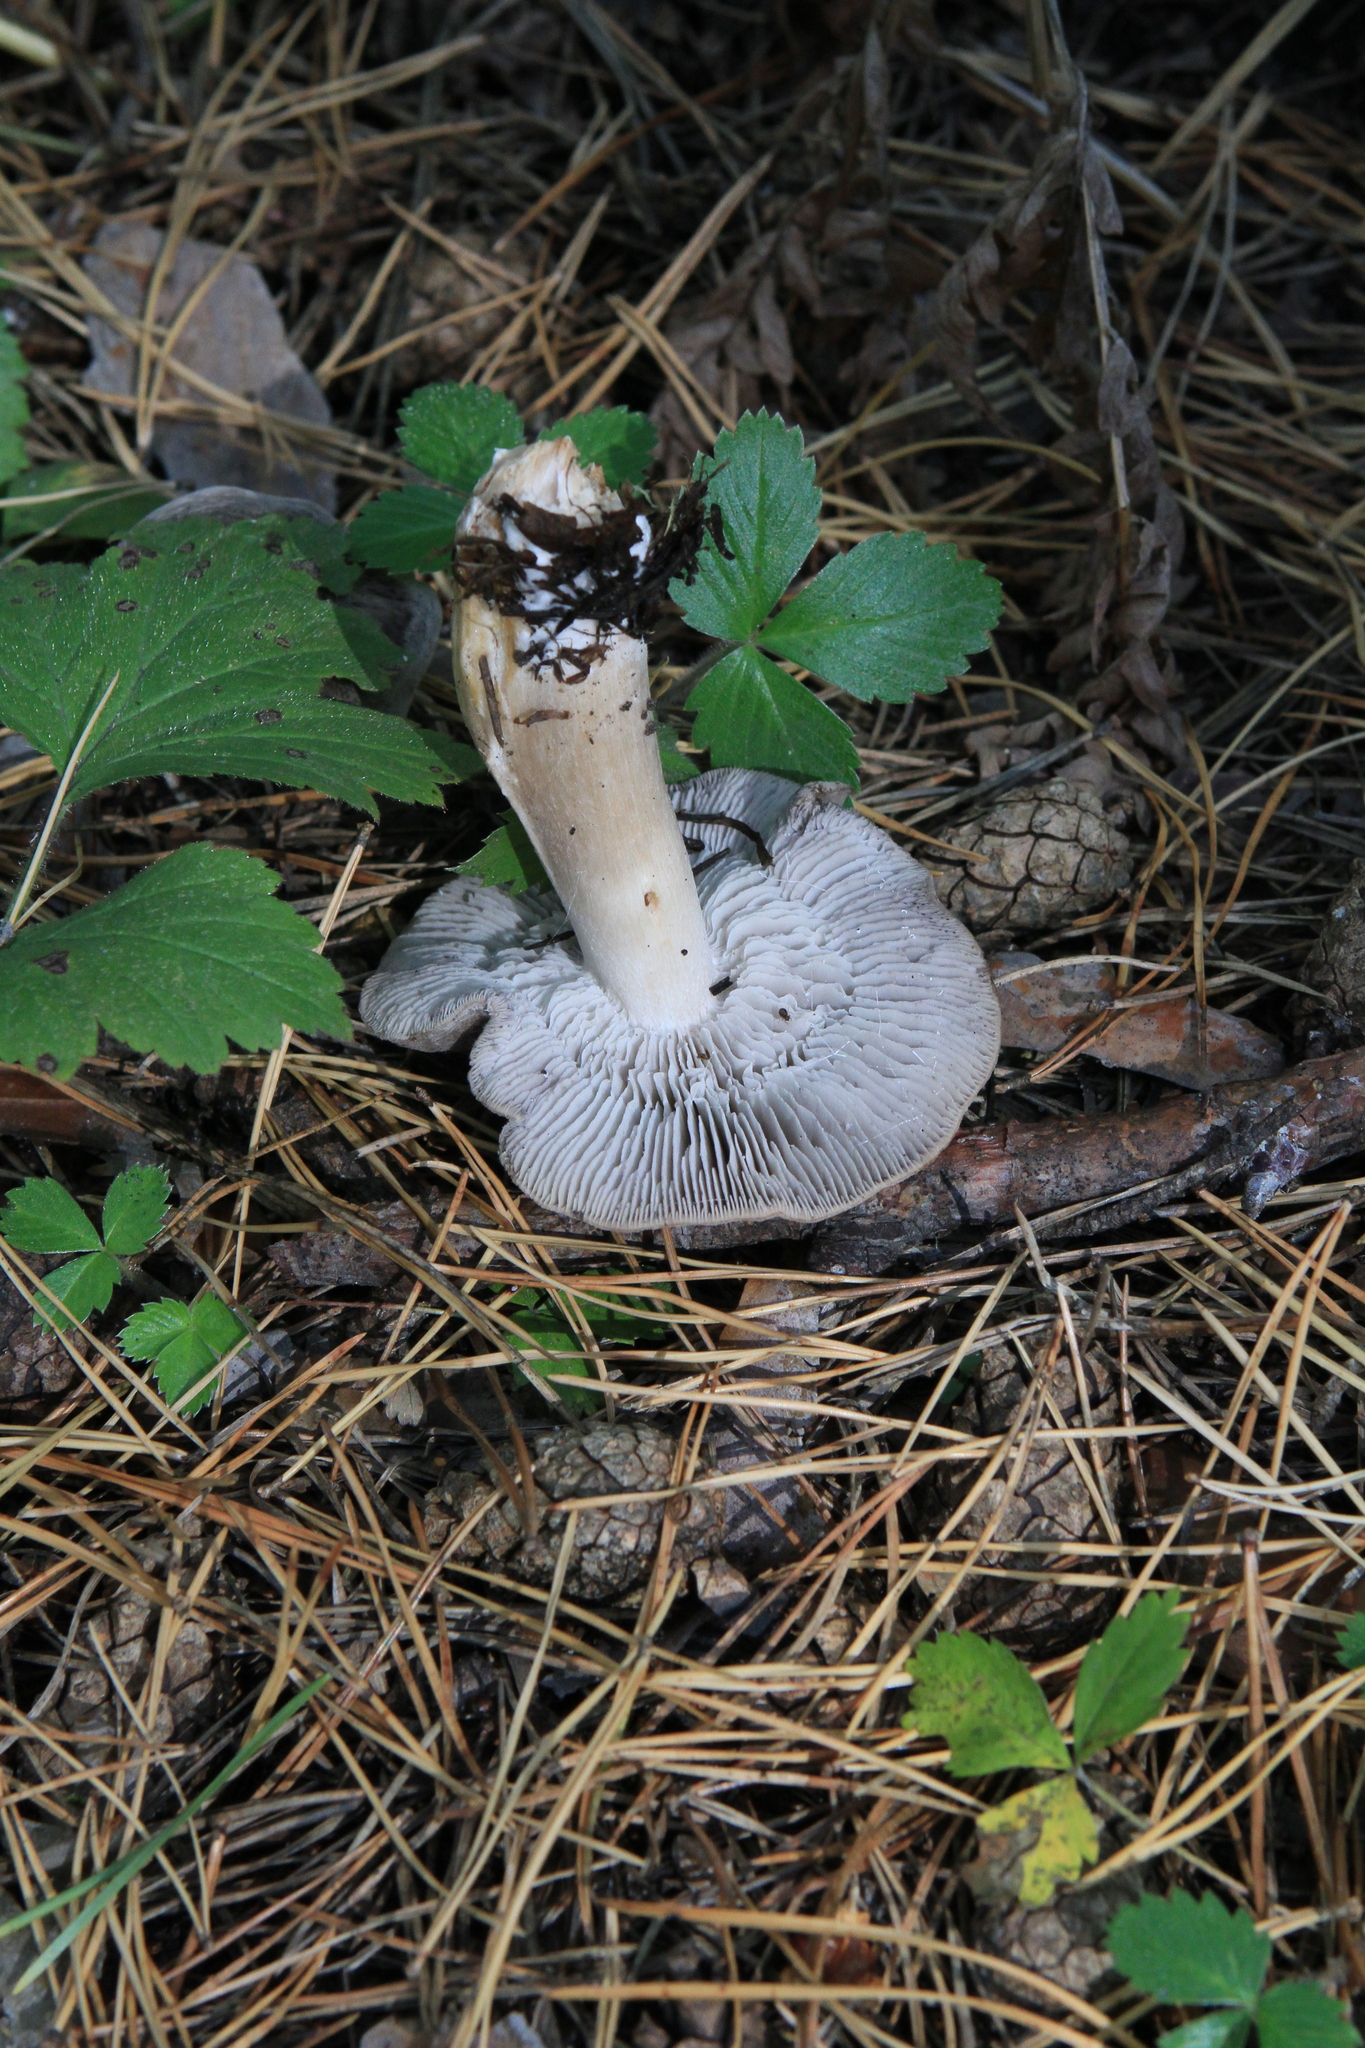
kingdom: Fungi
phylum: Basidiomycota
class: Agaricomycetes
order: Agaricales
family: Tricholomataceae
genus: Tricholoma
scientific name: Tricholoma terreum
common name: Grey knight
